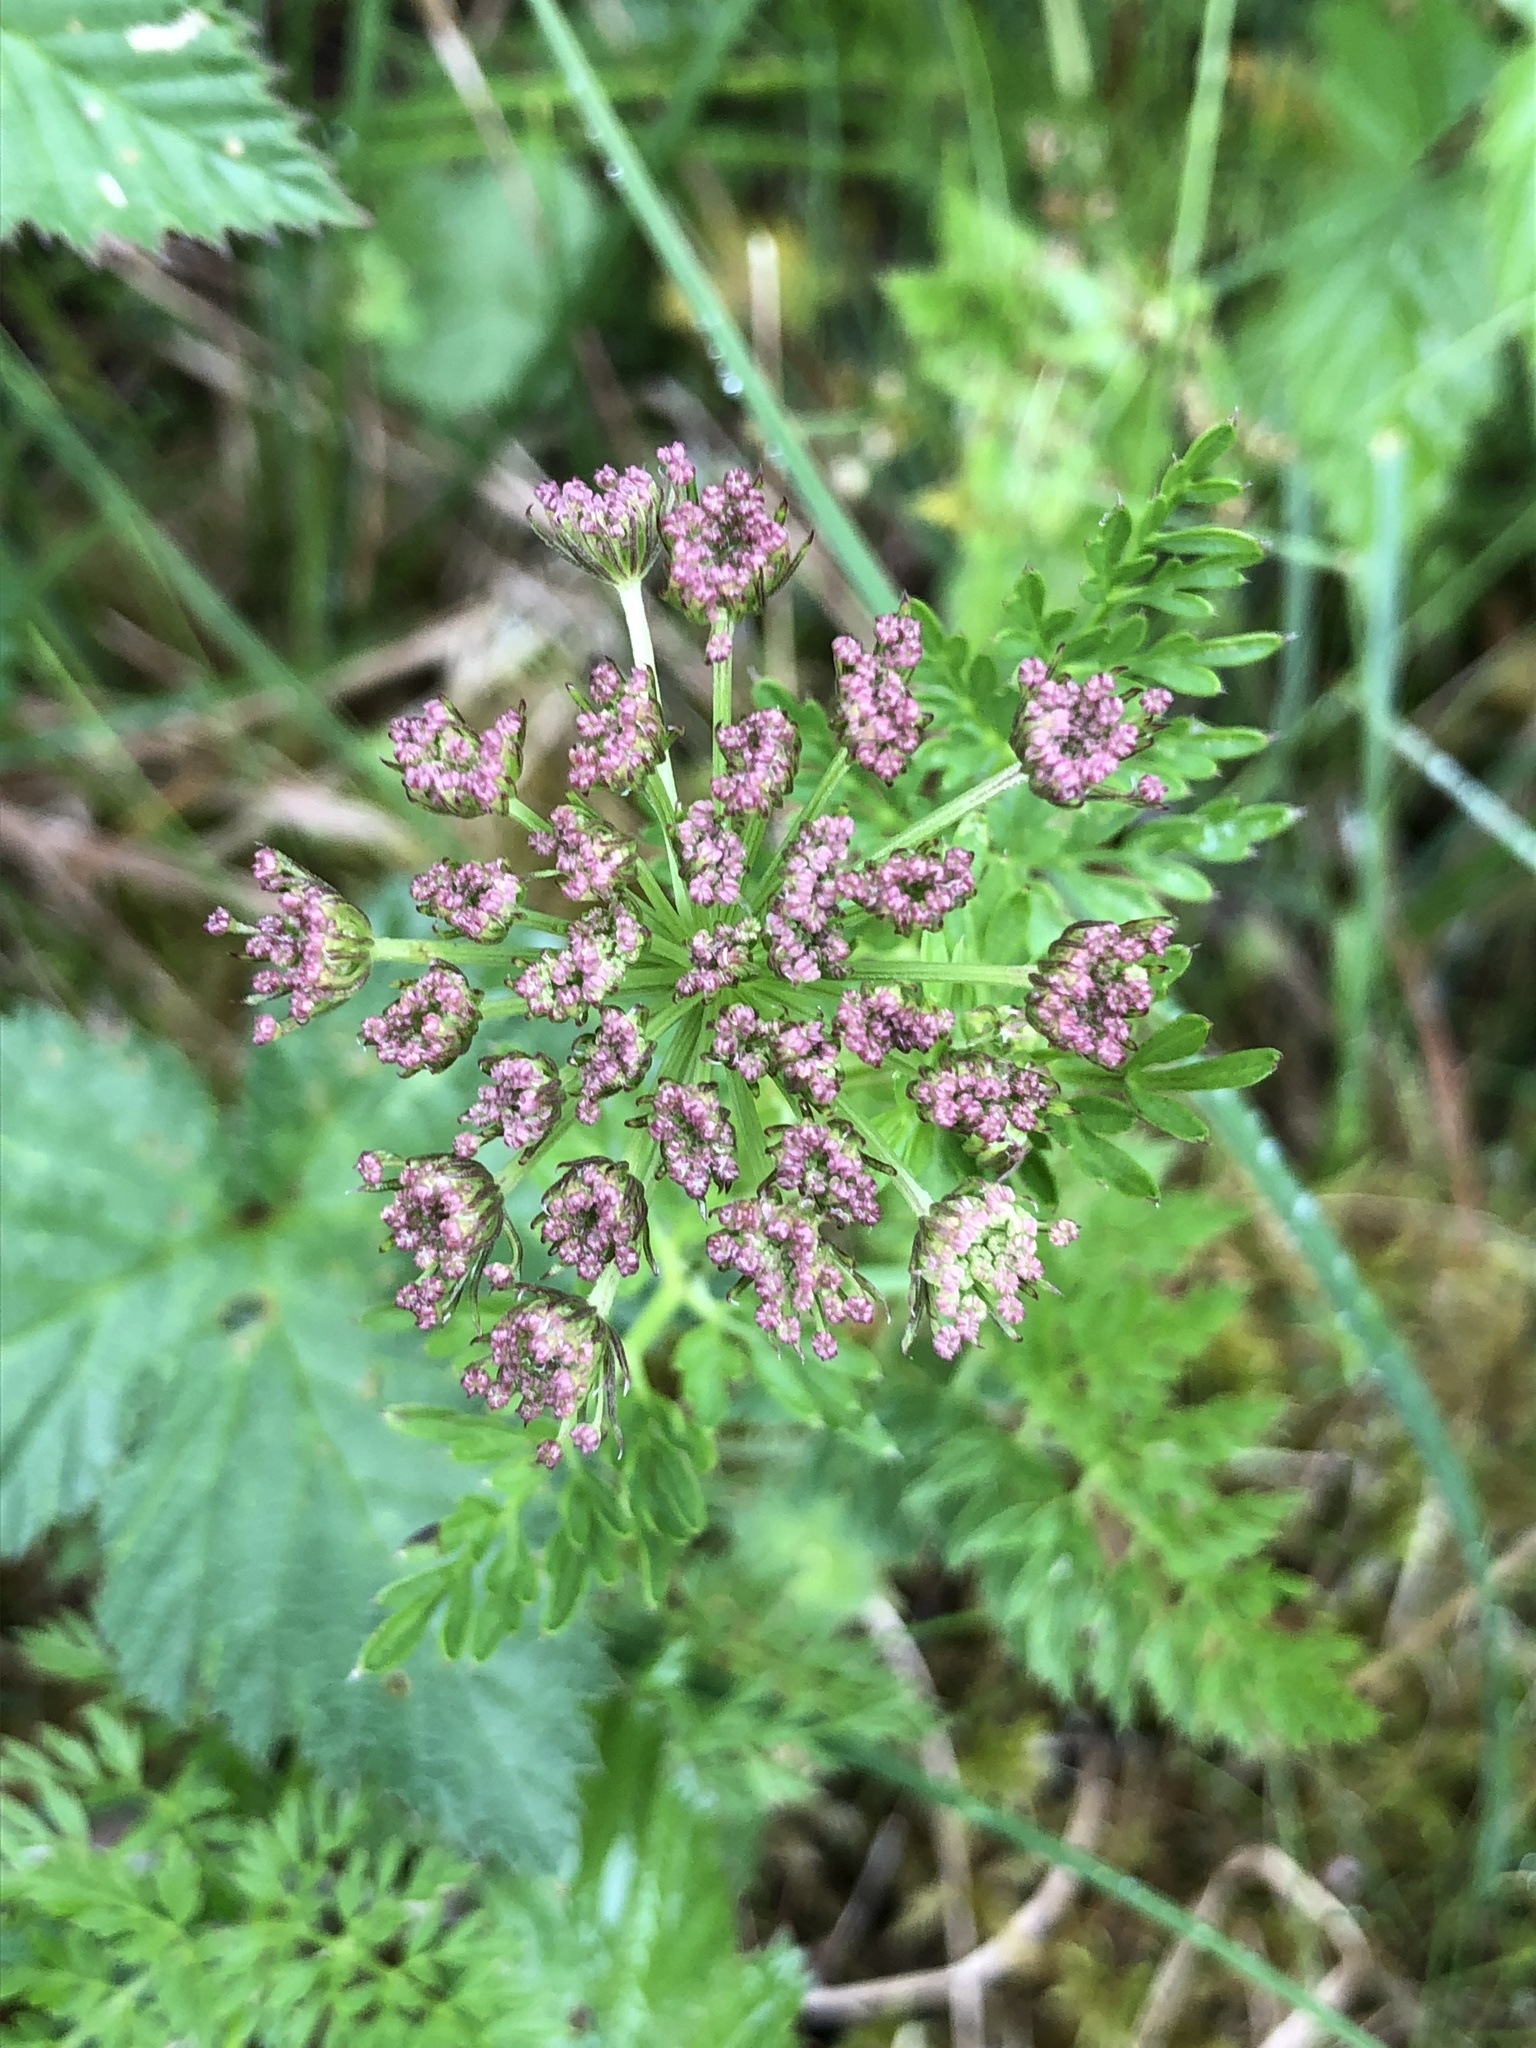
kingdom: Plantae
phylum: Tracheophyta
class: Magnoliopsida
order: Apiales
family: Apiaceae
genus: Selinum
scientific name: Selinum carvifolia
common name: Cambridge milk-parsley
